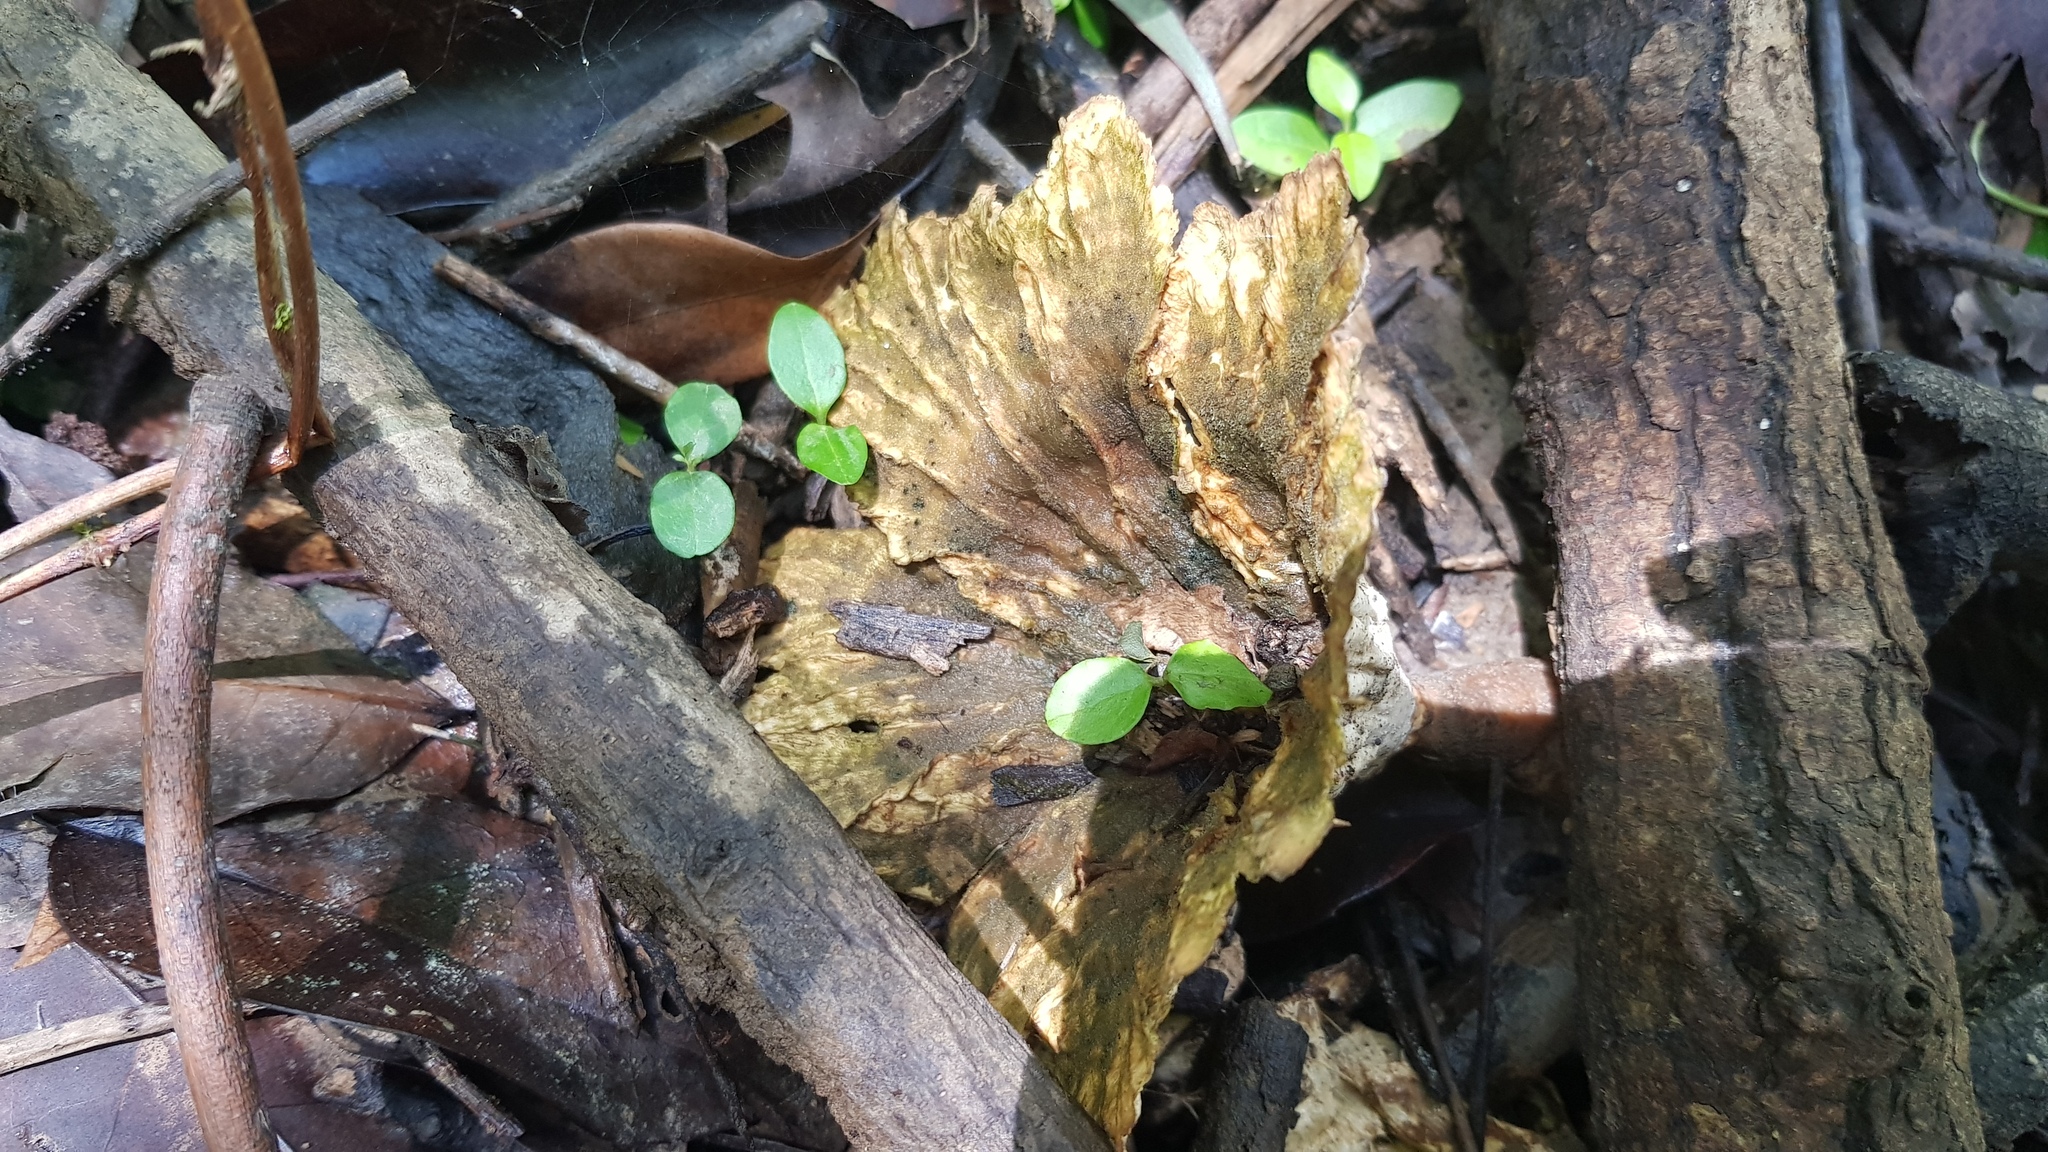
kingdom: Fungi
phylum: Basidiomycota
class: Agaricomycetes
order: Polyporales
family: Panaceae
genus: Cymatoderma
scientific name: Cymatoderma elegans
